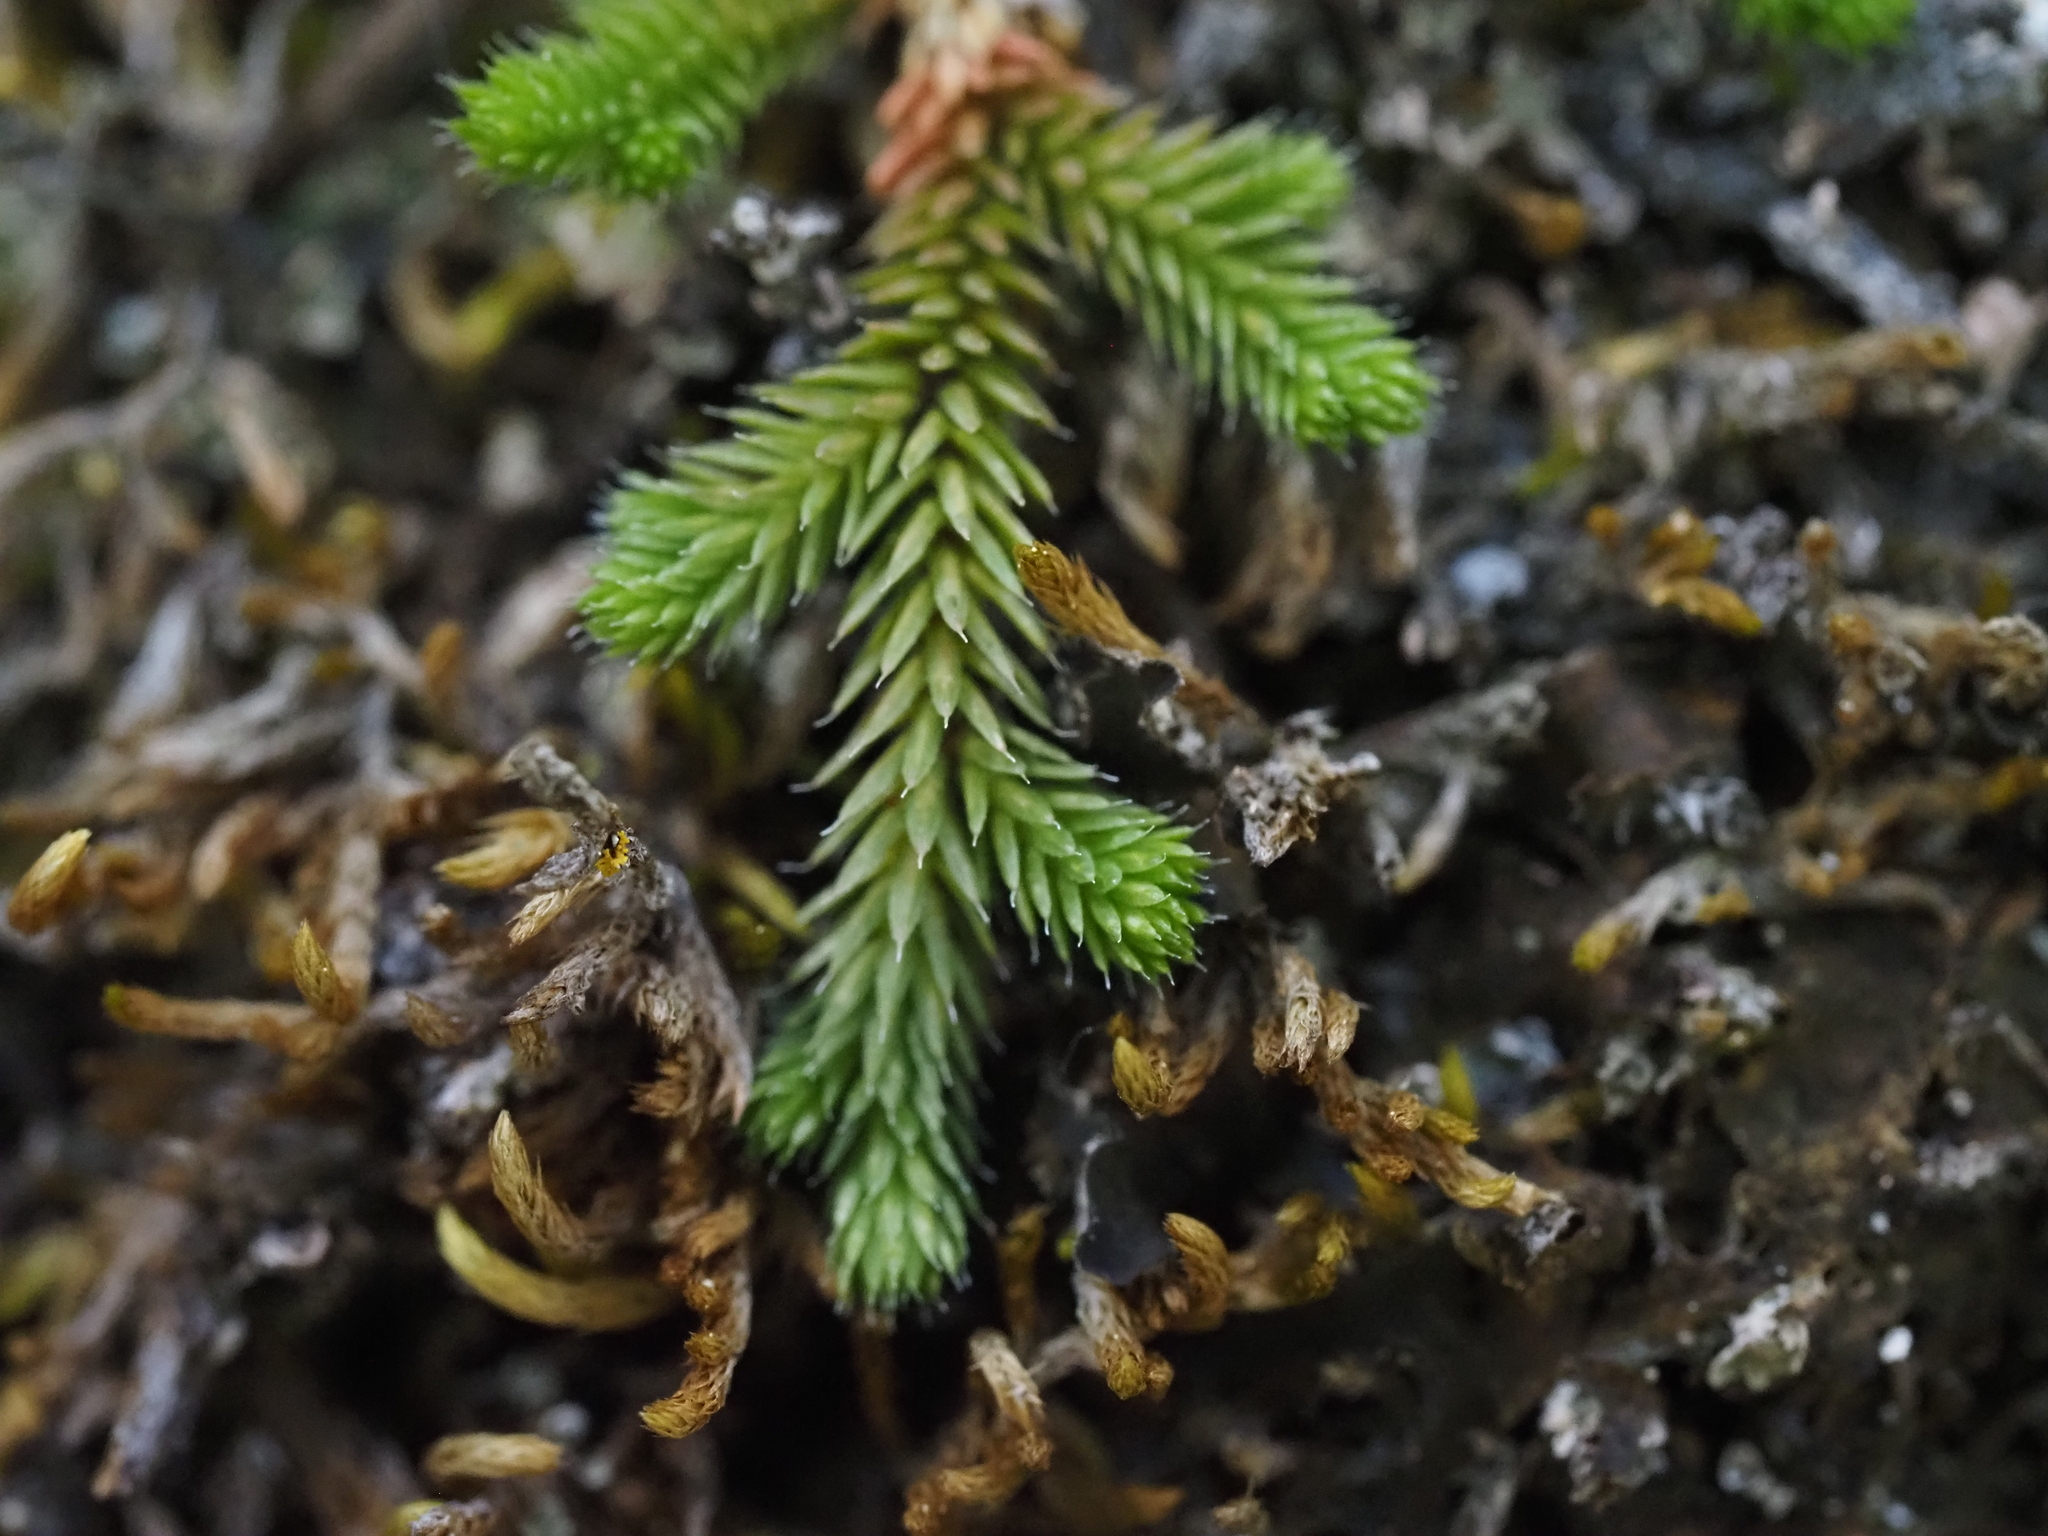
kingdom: Plantae
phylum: Tracheophyta
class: Lycopodiopsida
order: Selaginellales
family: Selaginellaceae
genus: Selaginella
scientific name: Selaginella wallacei
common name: Wallace's selaginella
